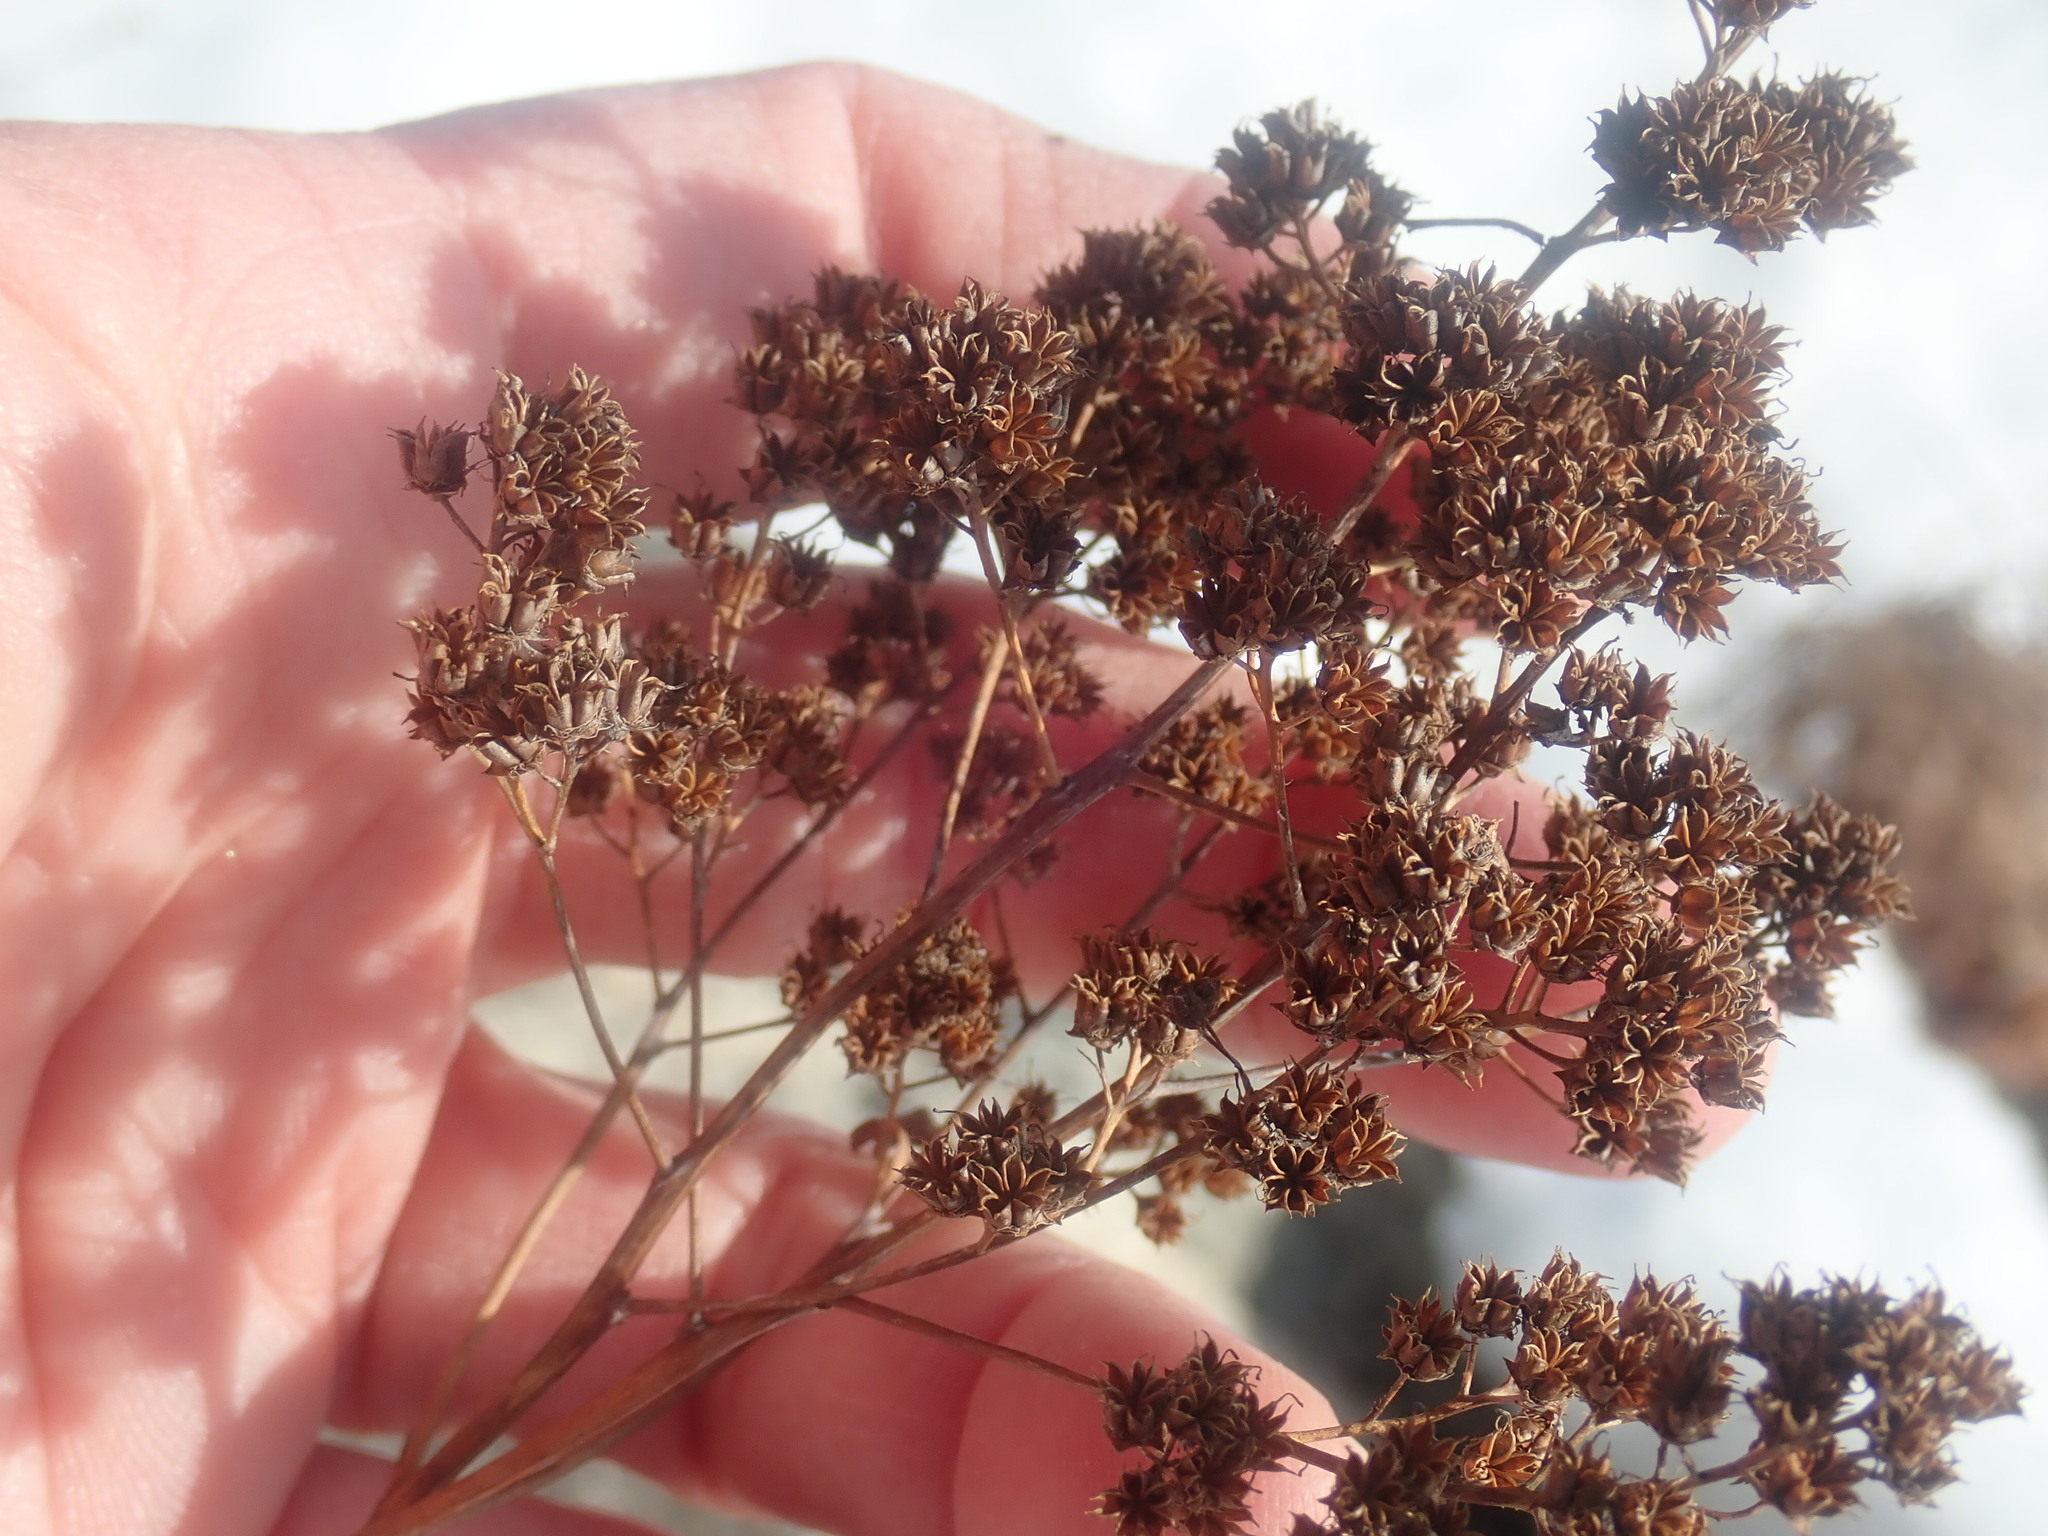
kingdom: Plantae
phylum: Tracheophyta
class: Magnoliopsida
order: Rosales
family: Rosaceae
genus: Spiraea
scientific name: Spiraea alba
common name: Pale bridewort
